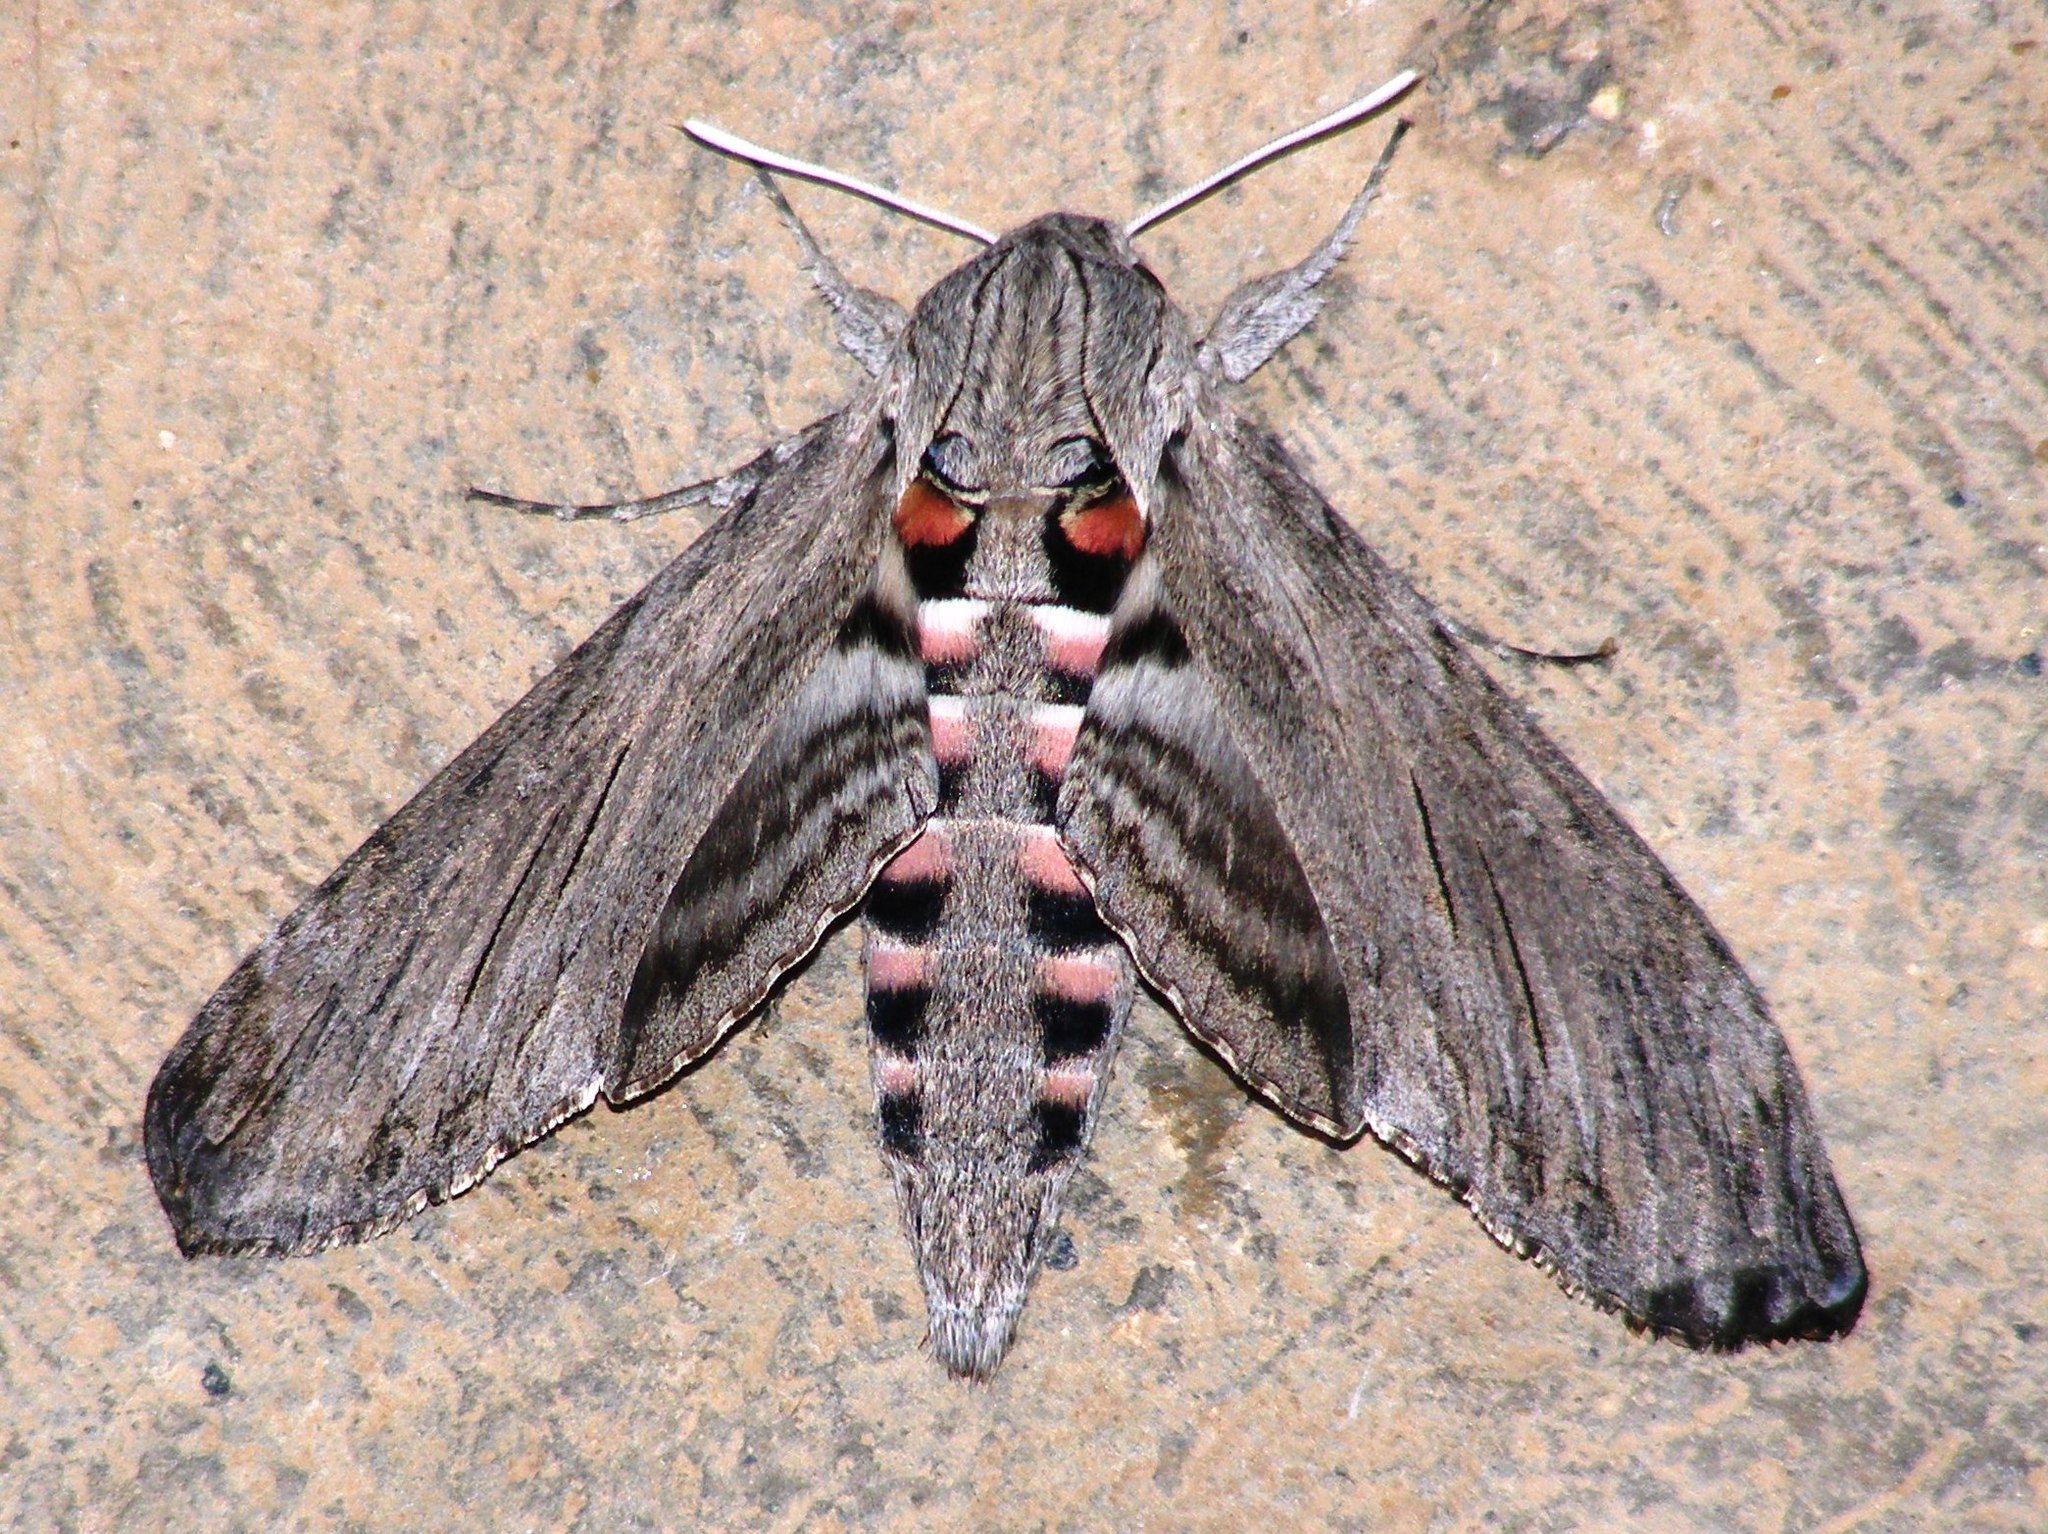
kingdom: Animalia
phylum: Arthropoda
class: Insecta
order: Lepidoptera
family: Sphingidae
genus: Agrius
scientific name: Agrius convolvuli
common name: Convolvulus hawkmoth
